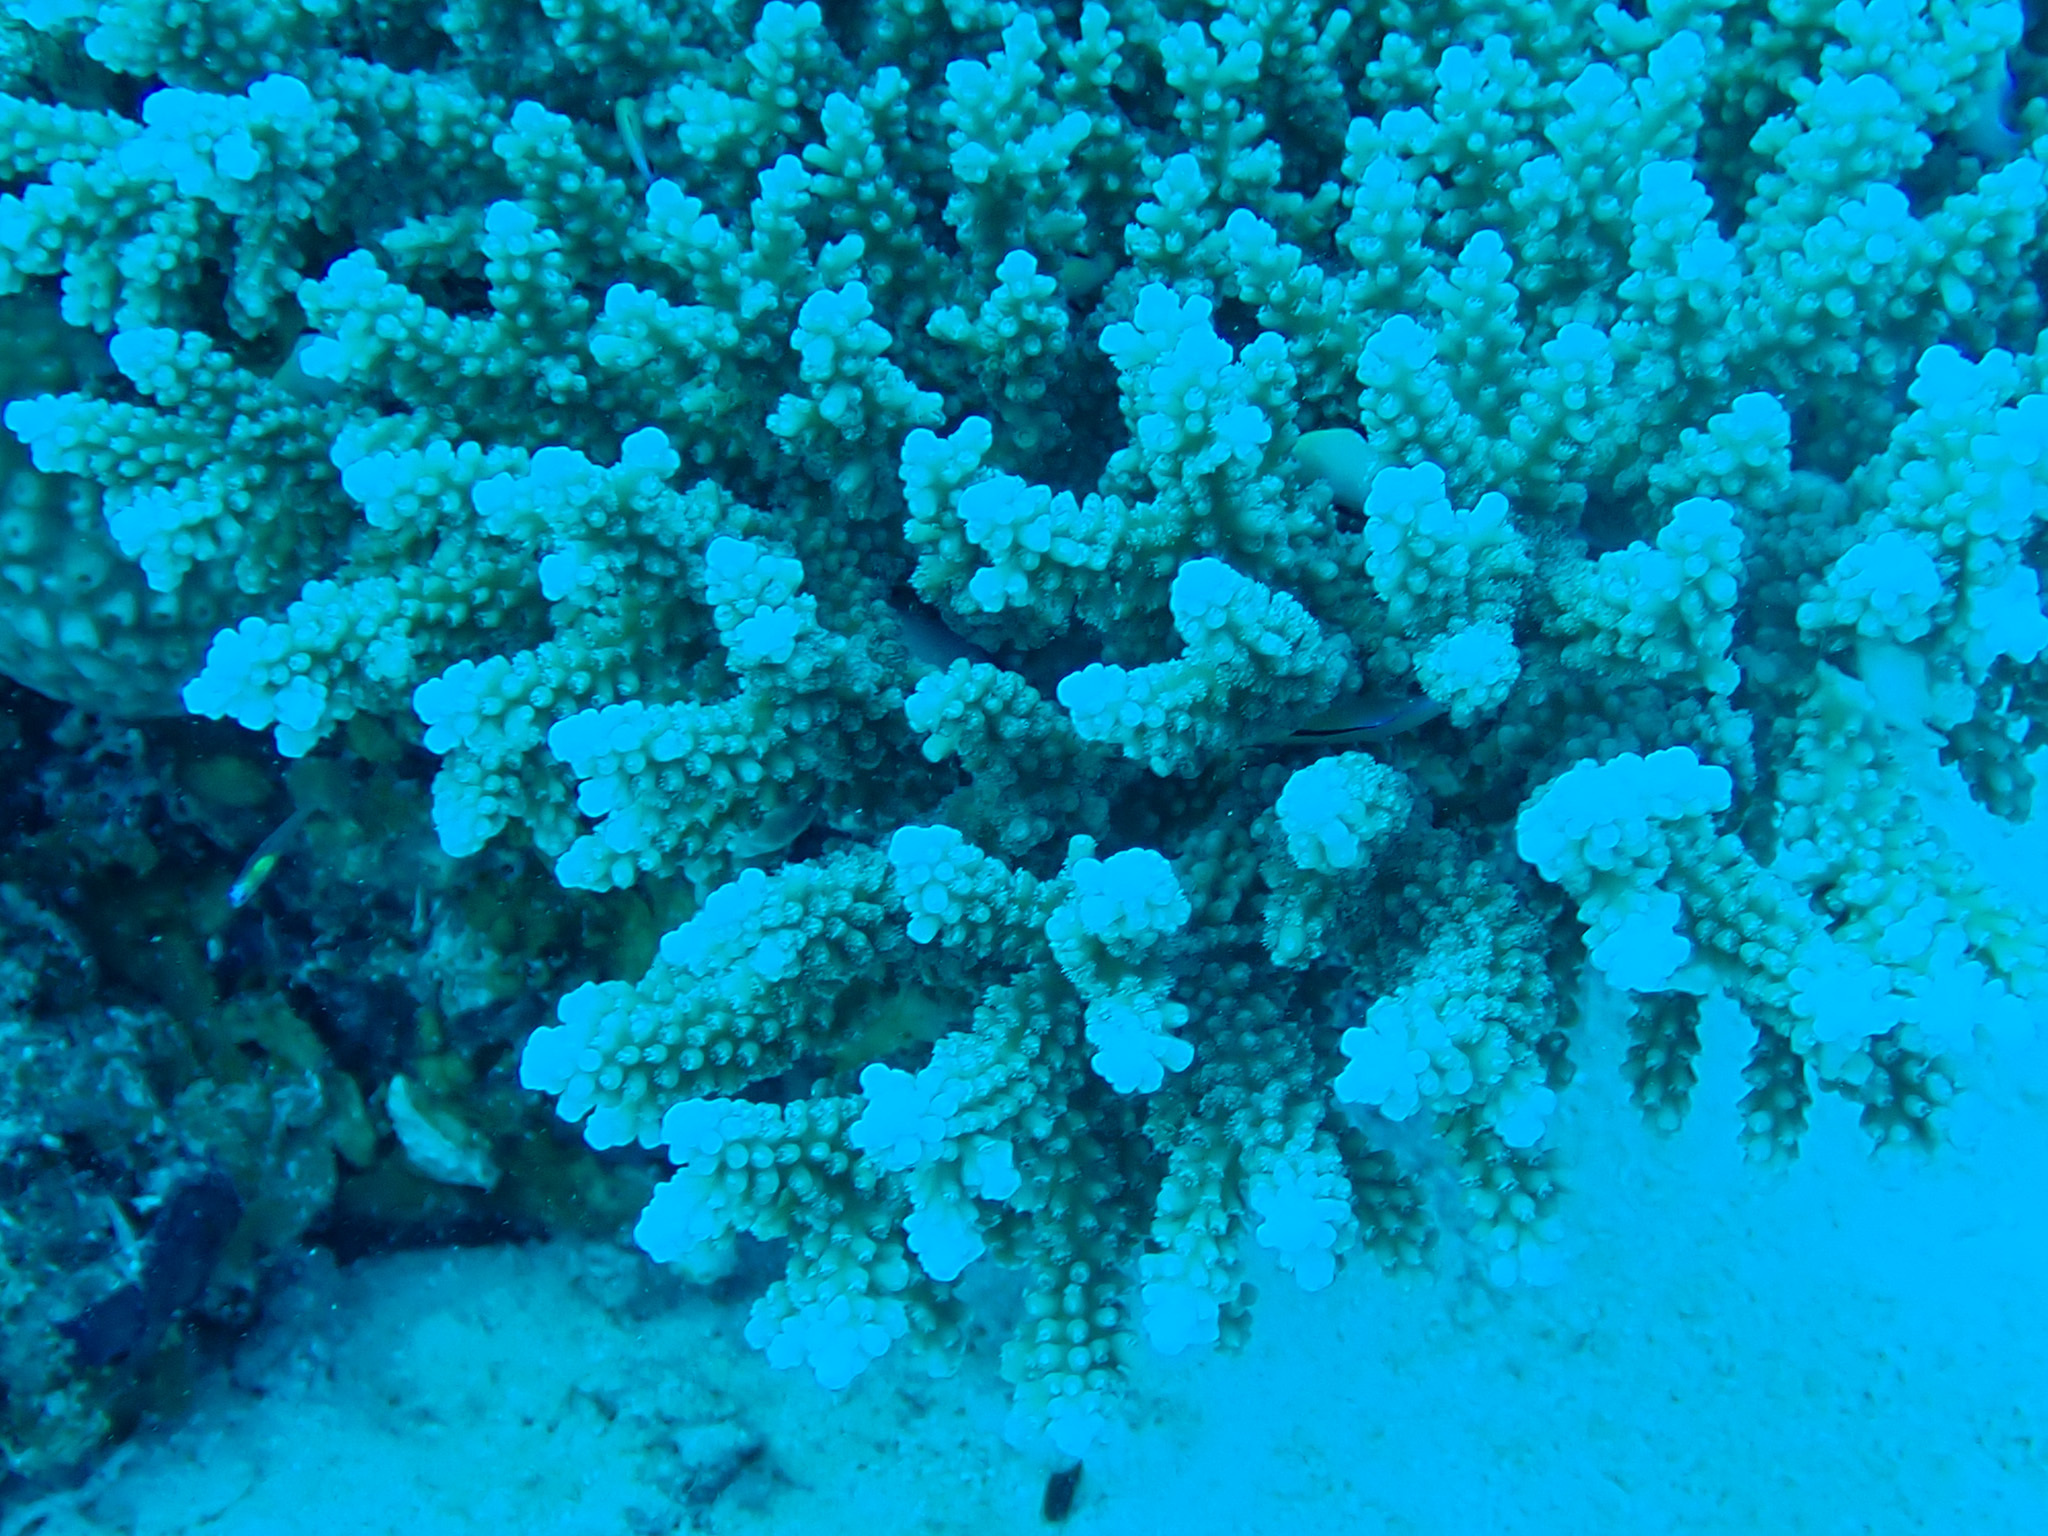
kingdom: Animalia
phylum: Cnidaria
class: Anthozoa
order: Scleractinia
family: Acroporidae
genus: Acropora
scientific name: Acropora
